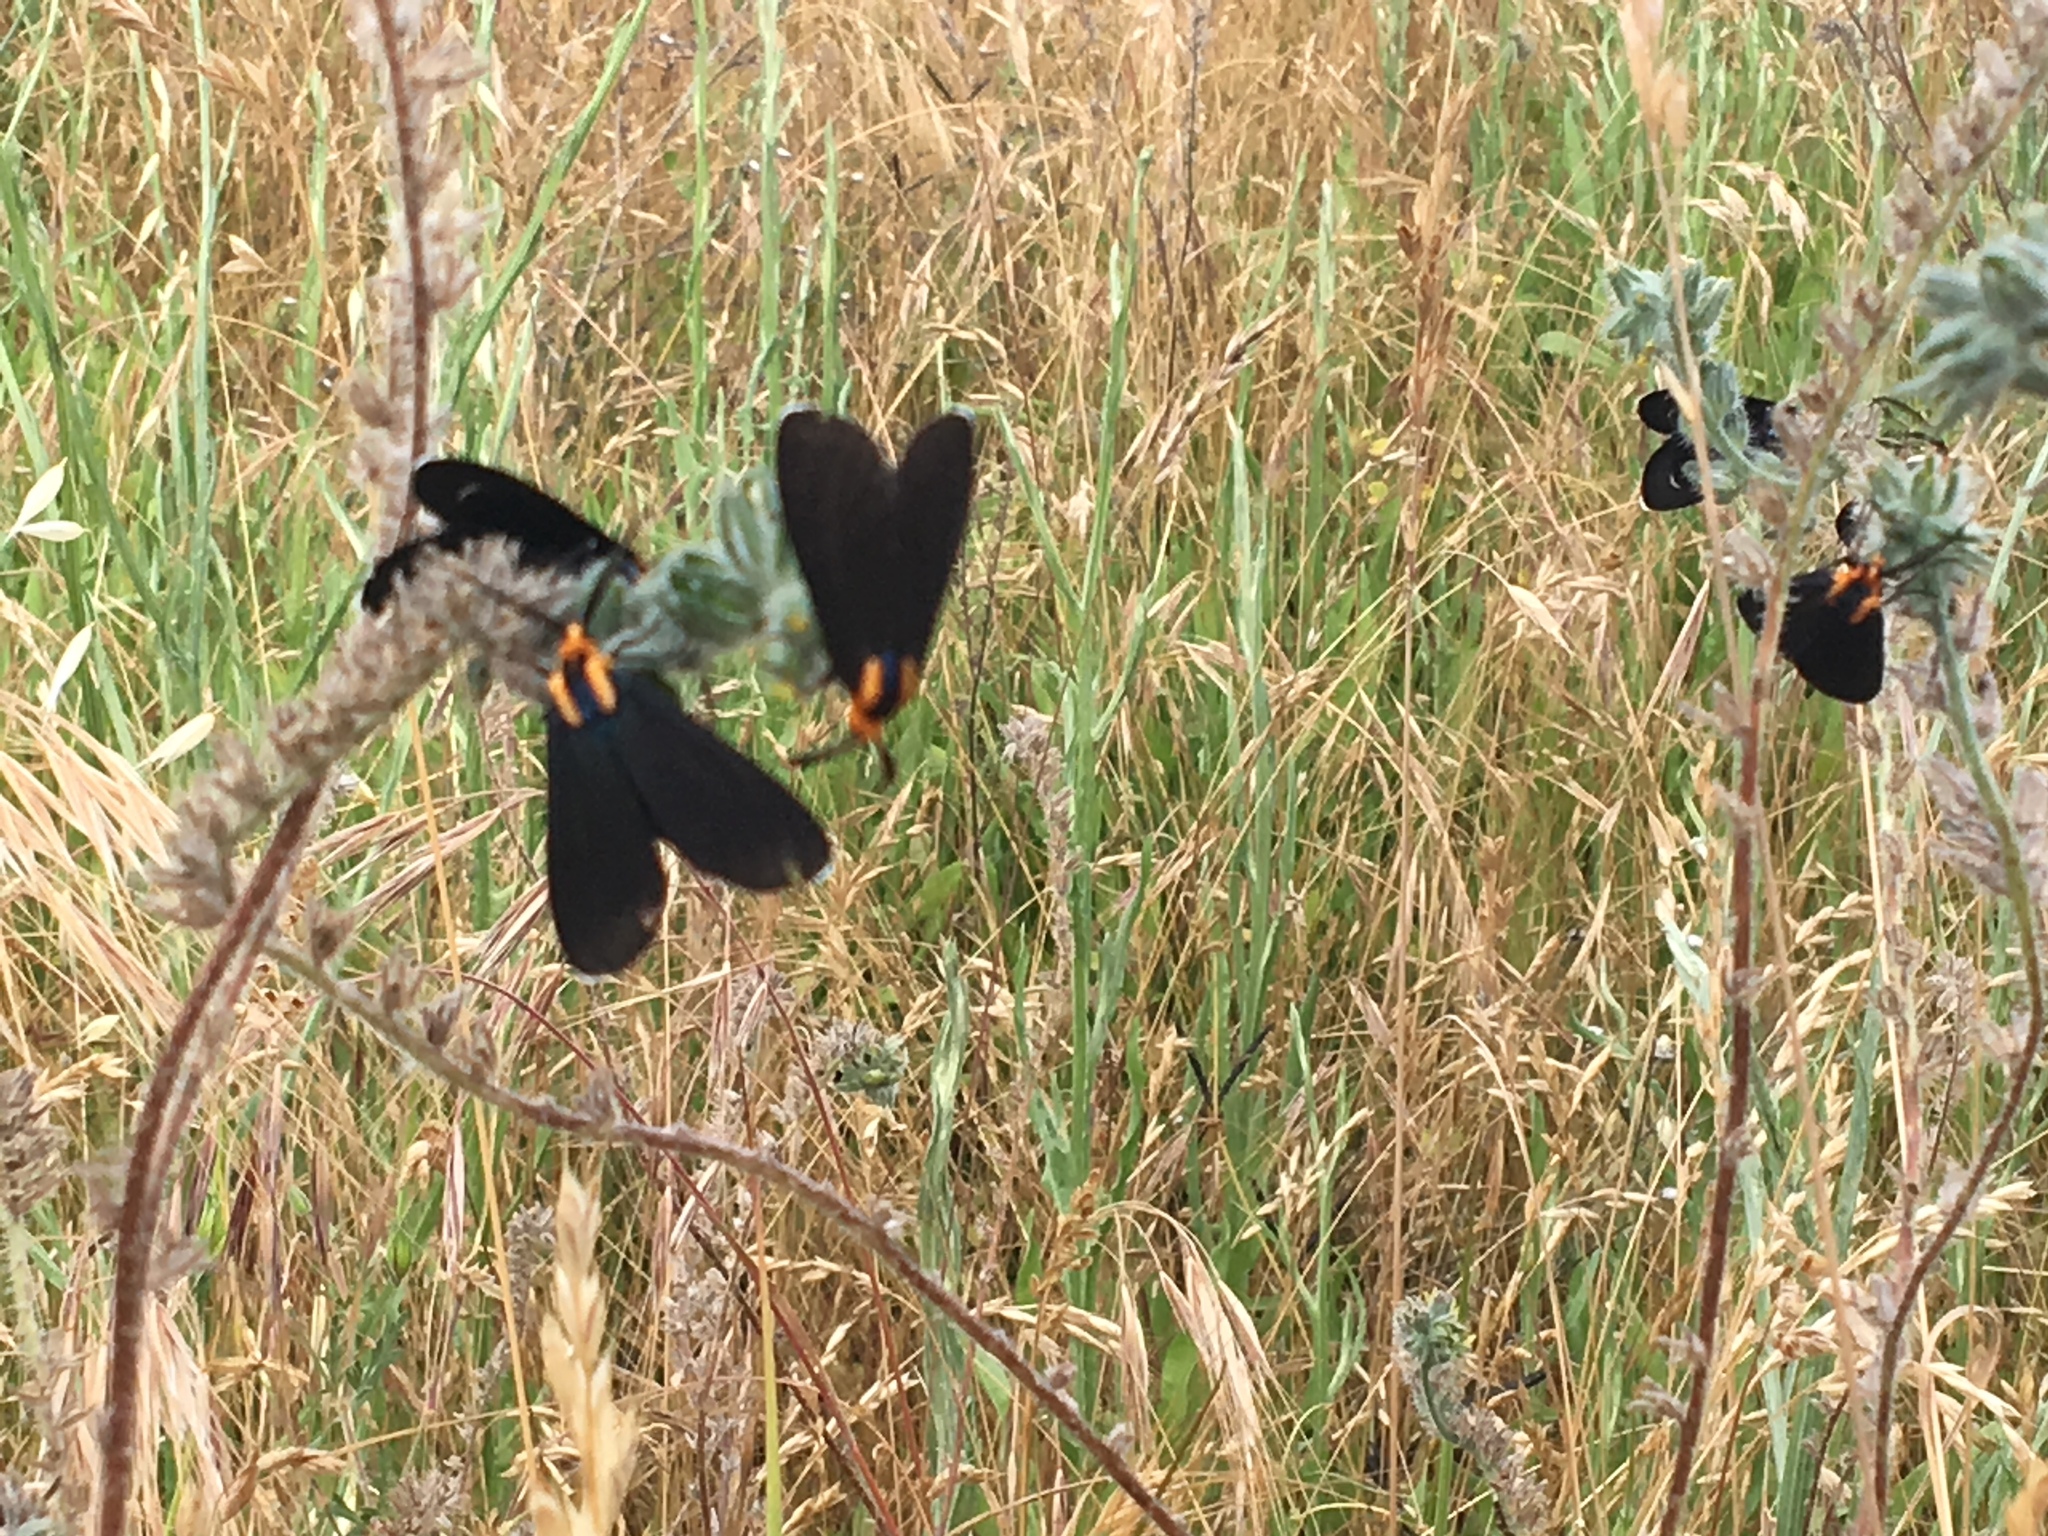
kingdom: Animalia
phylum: Arthropoda
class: Insecta
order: Lepidoptera
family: Erebidae
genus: Ctenucha
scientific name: Ctenucha rubroscapus
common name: Red-shouldered ctenucha
